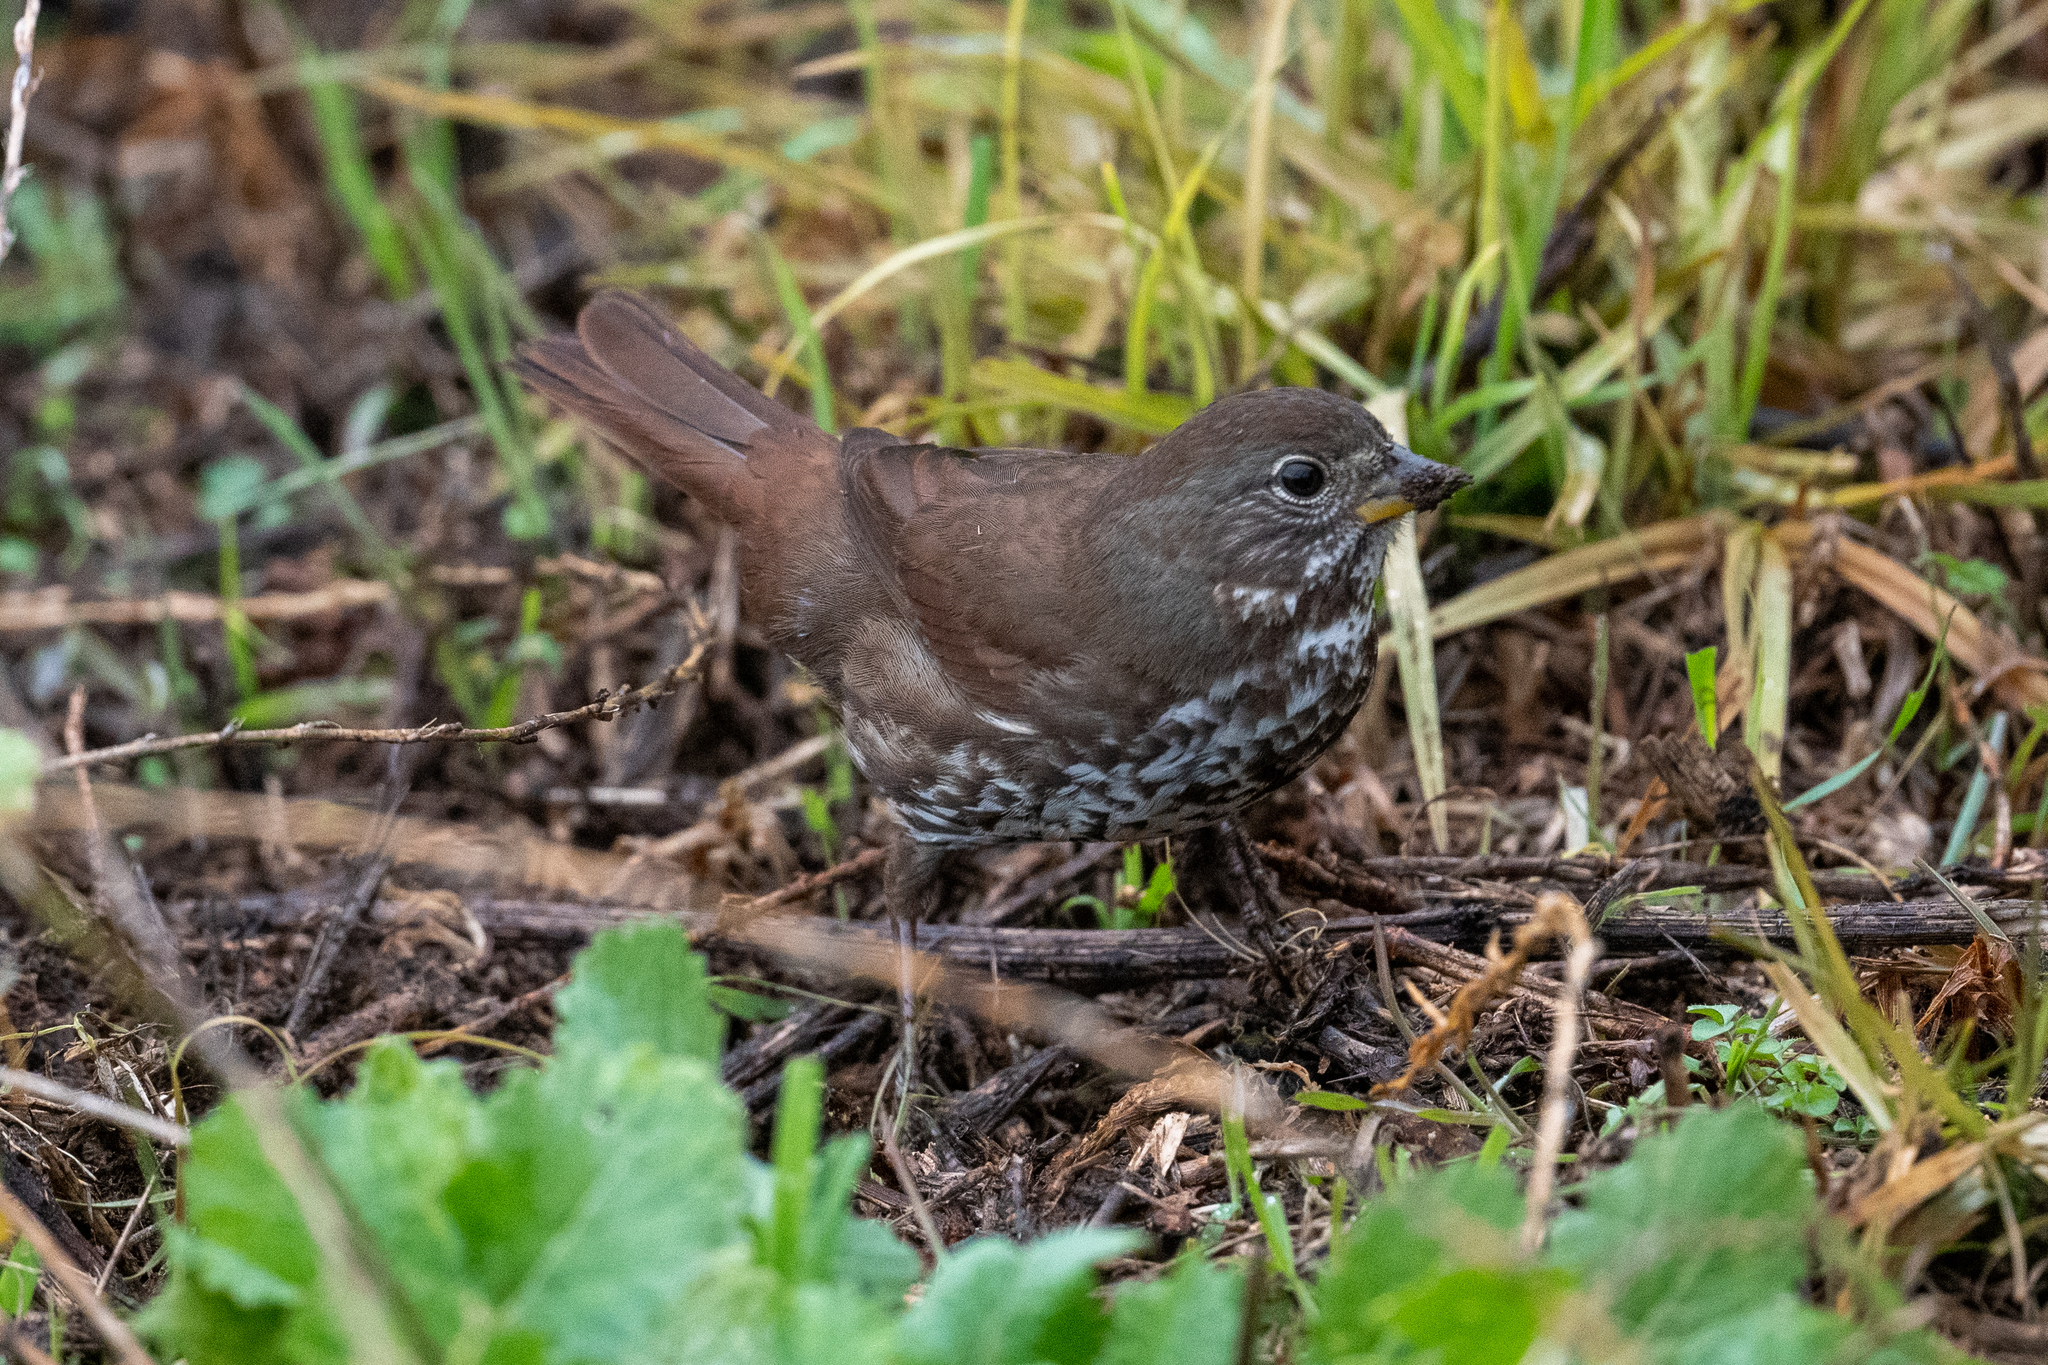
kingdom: Animalia
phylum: Chordata
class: Aves
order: Passeriformes
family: Passerellidae
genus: Passerella
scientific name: Passerella iliaca
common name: Fox sparrow
